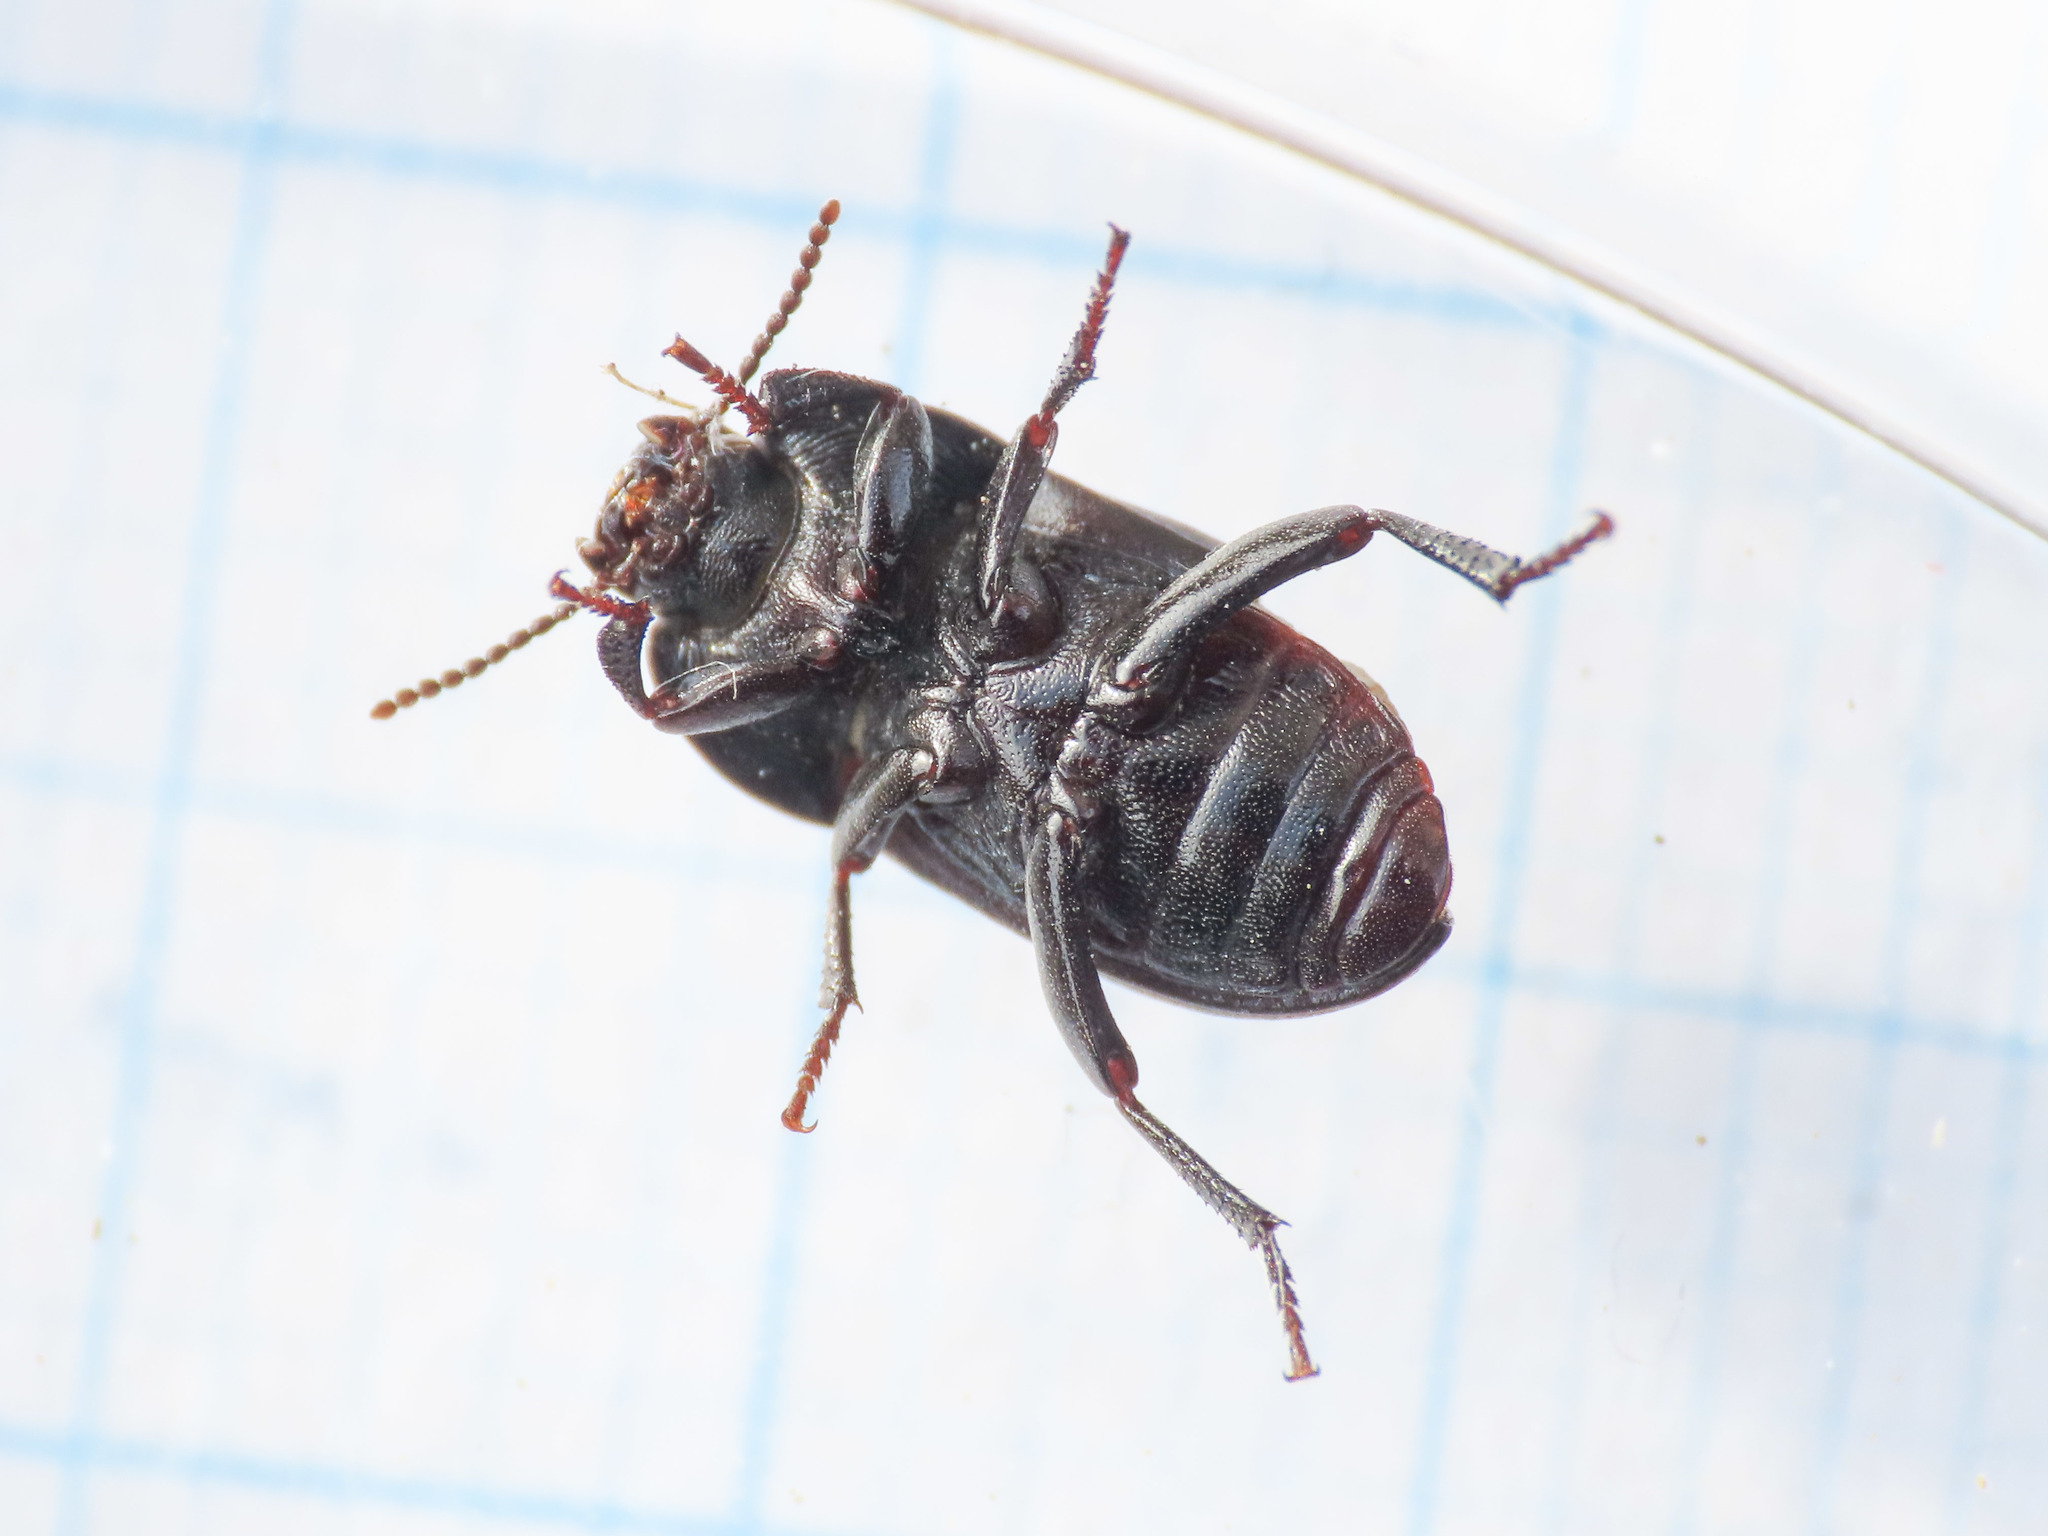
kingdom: Animalia
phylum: Arthropoda
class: Insecta
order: Coleoptera
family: Tenebrionidae
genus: Pedinus
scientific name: Pedinus meridianus
